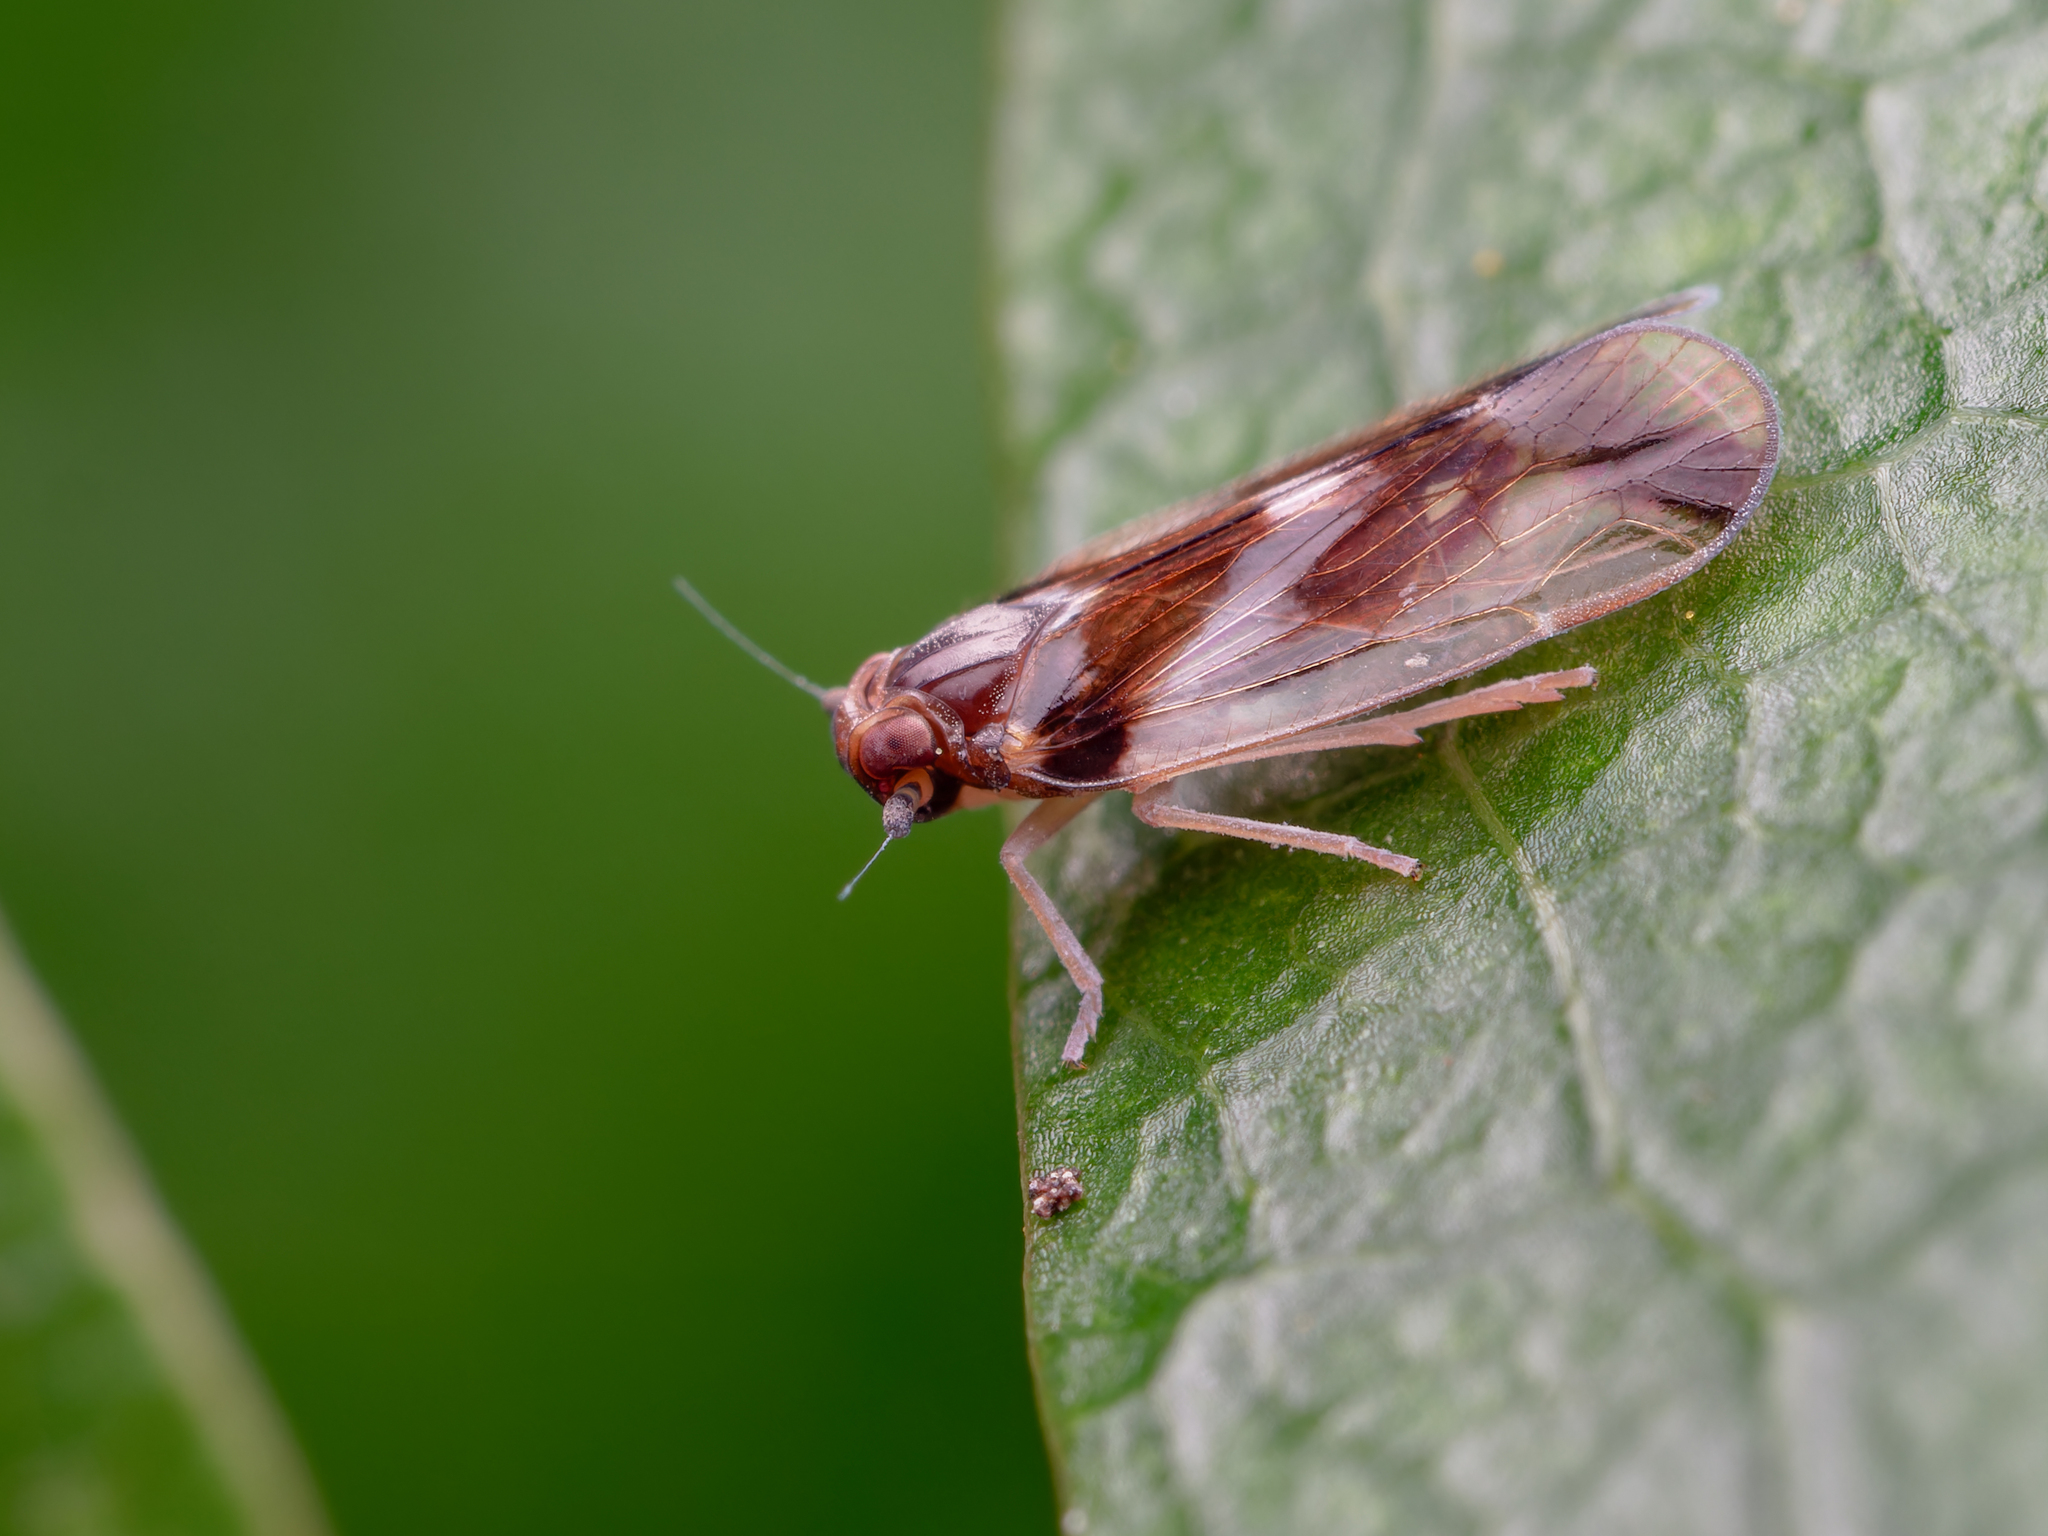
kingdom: Animalia
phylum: Arthropoda
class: Insecta
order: Hemiptera
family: Cixiidae
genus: Tiriteana
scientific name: Tiriteana clarkei
